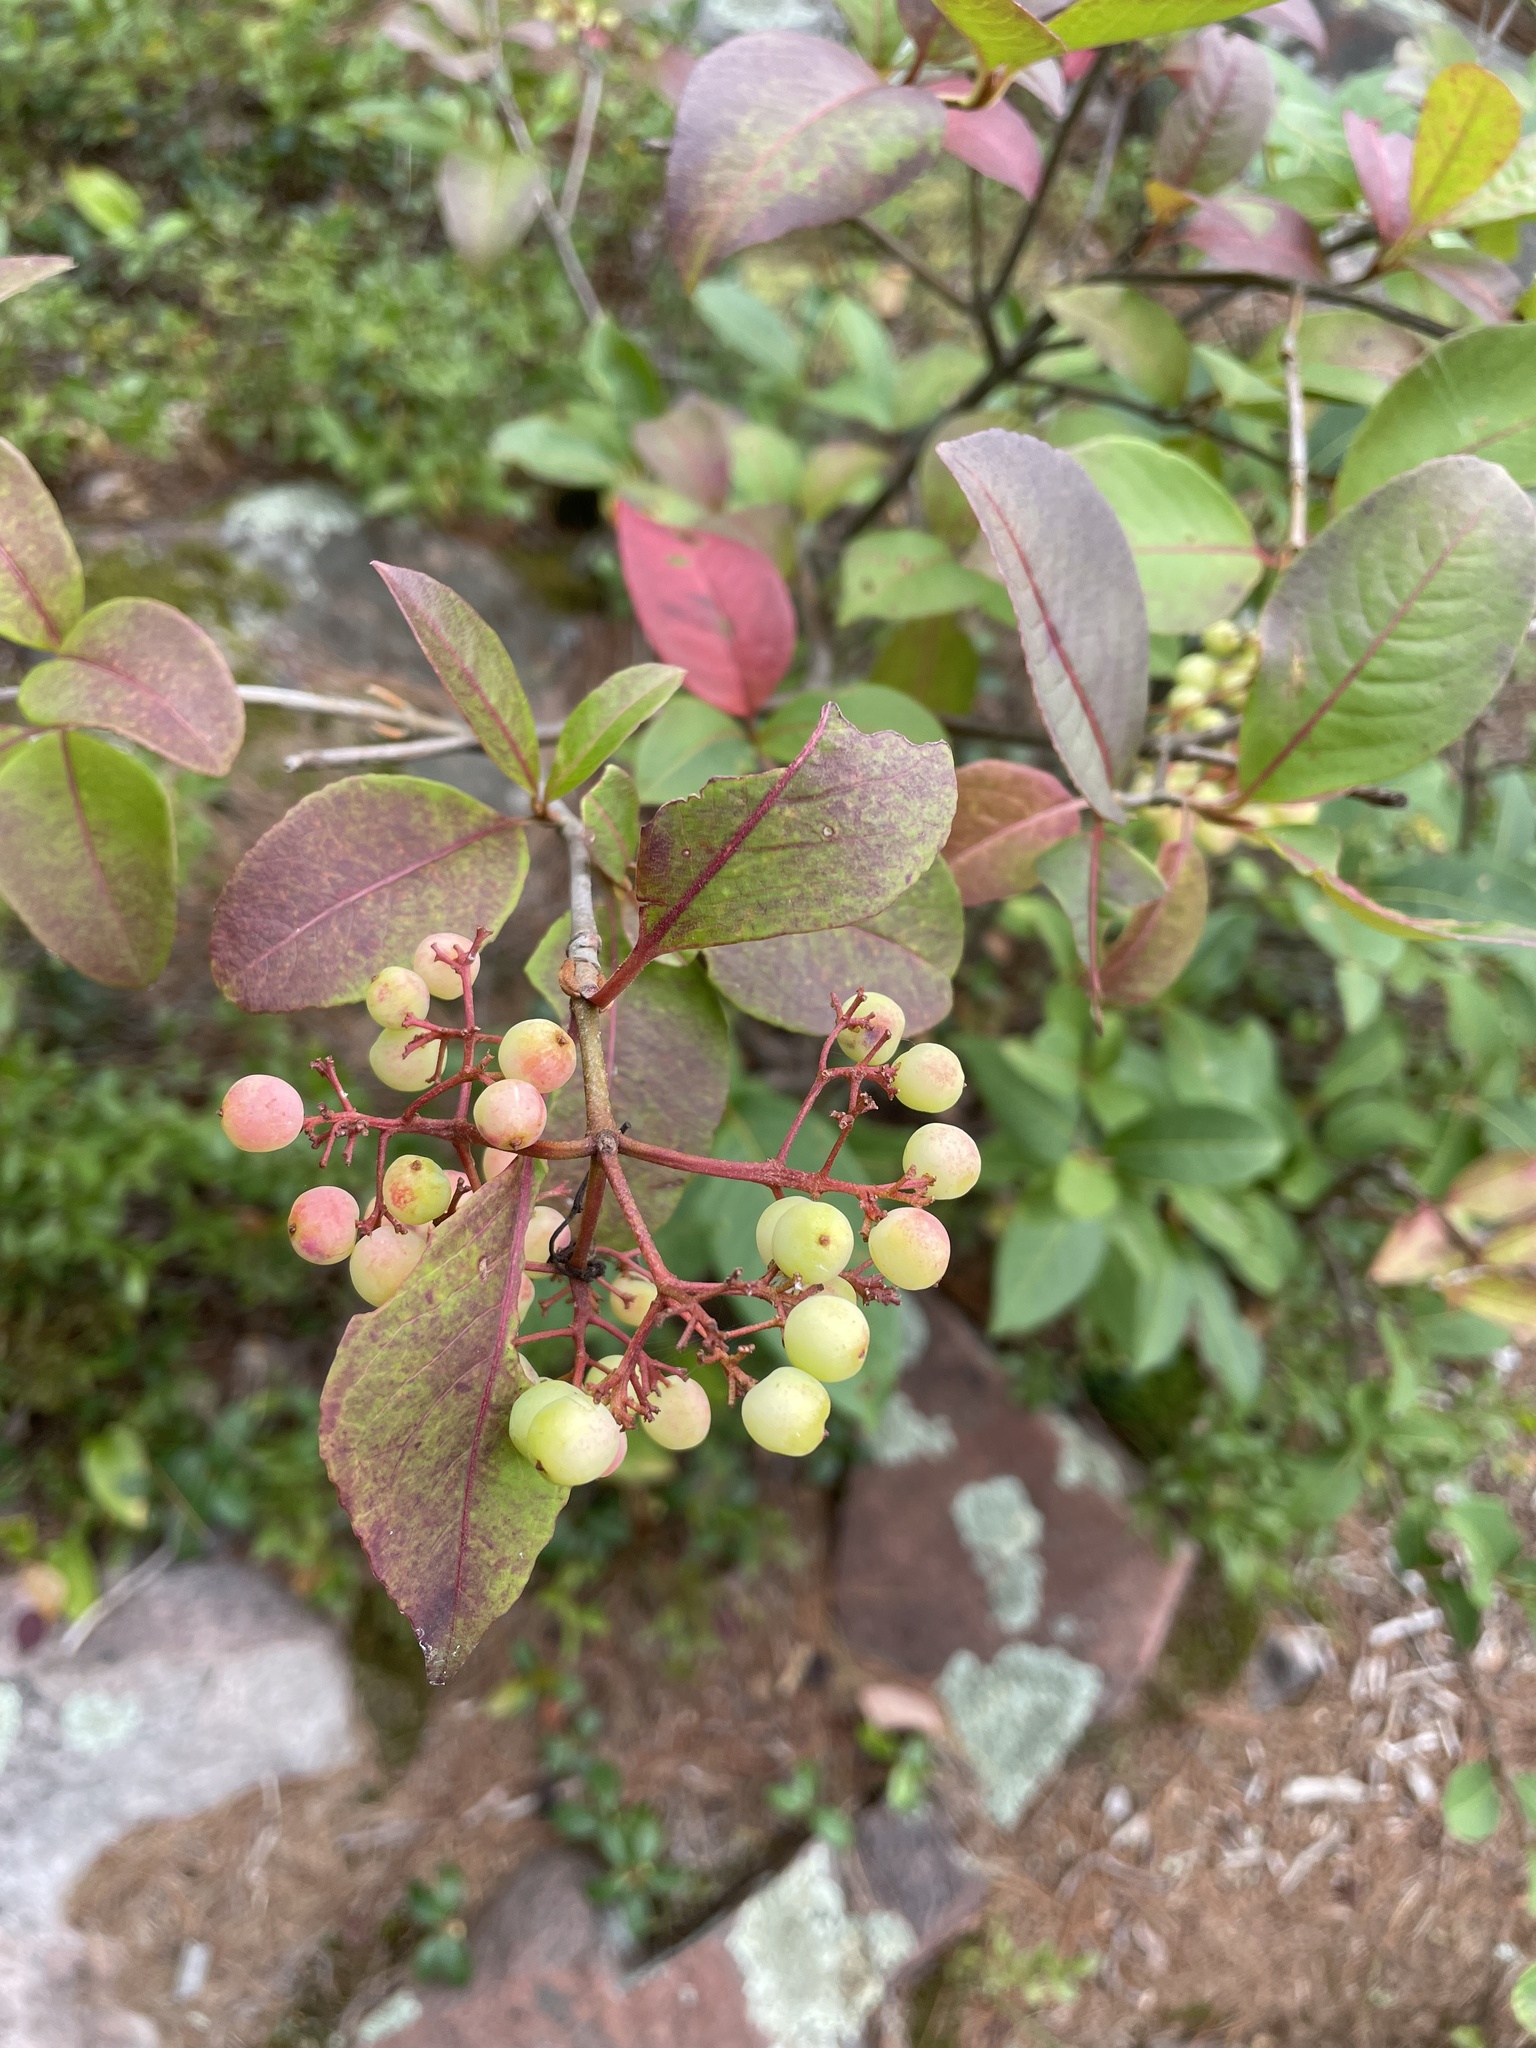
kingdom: Plantae
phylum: Tracheophyta
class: Magnoliopsida
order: Dipsacales
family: Viburnaceae
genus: Viburnum
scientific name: Viburnum cassinoides
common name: Swamp haw
